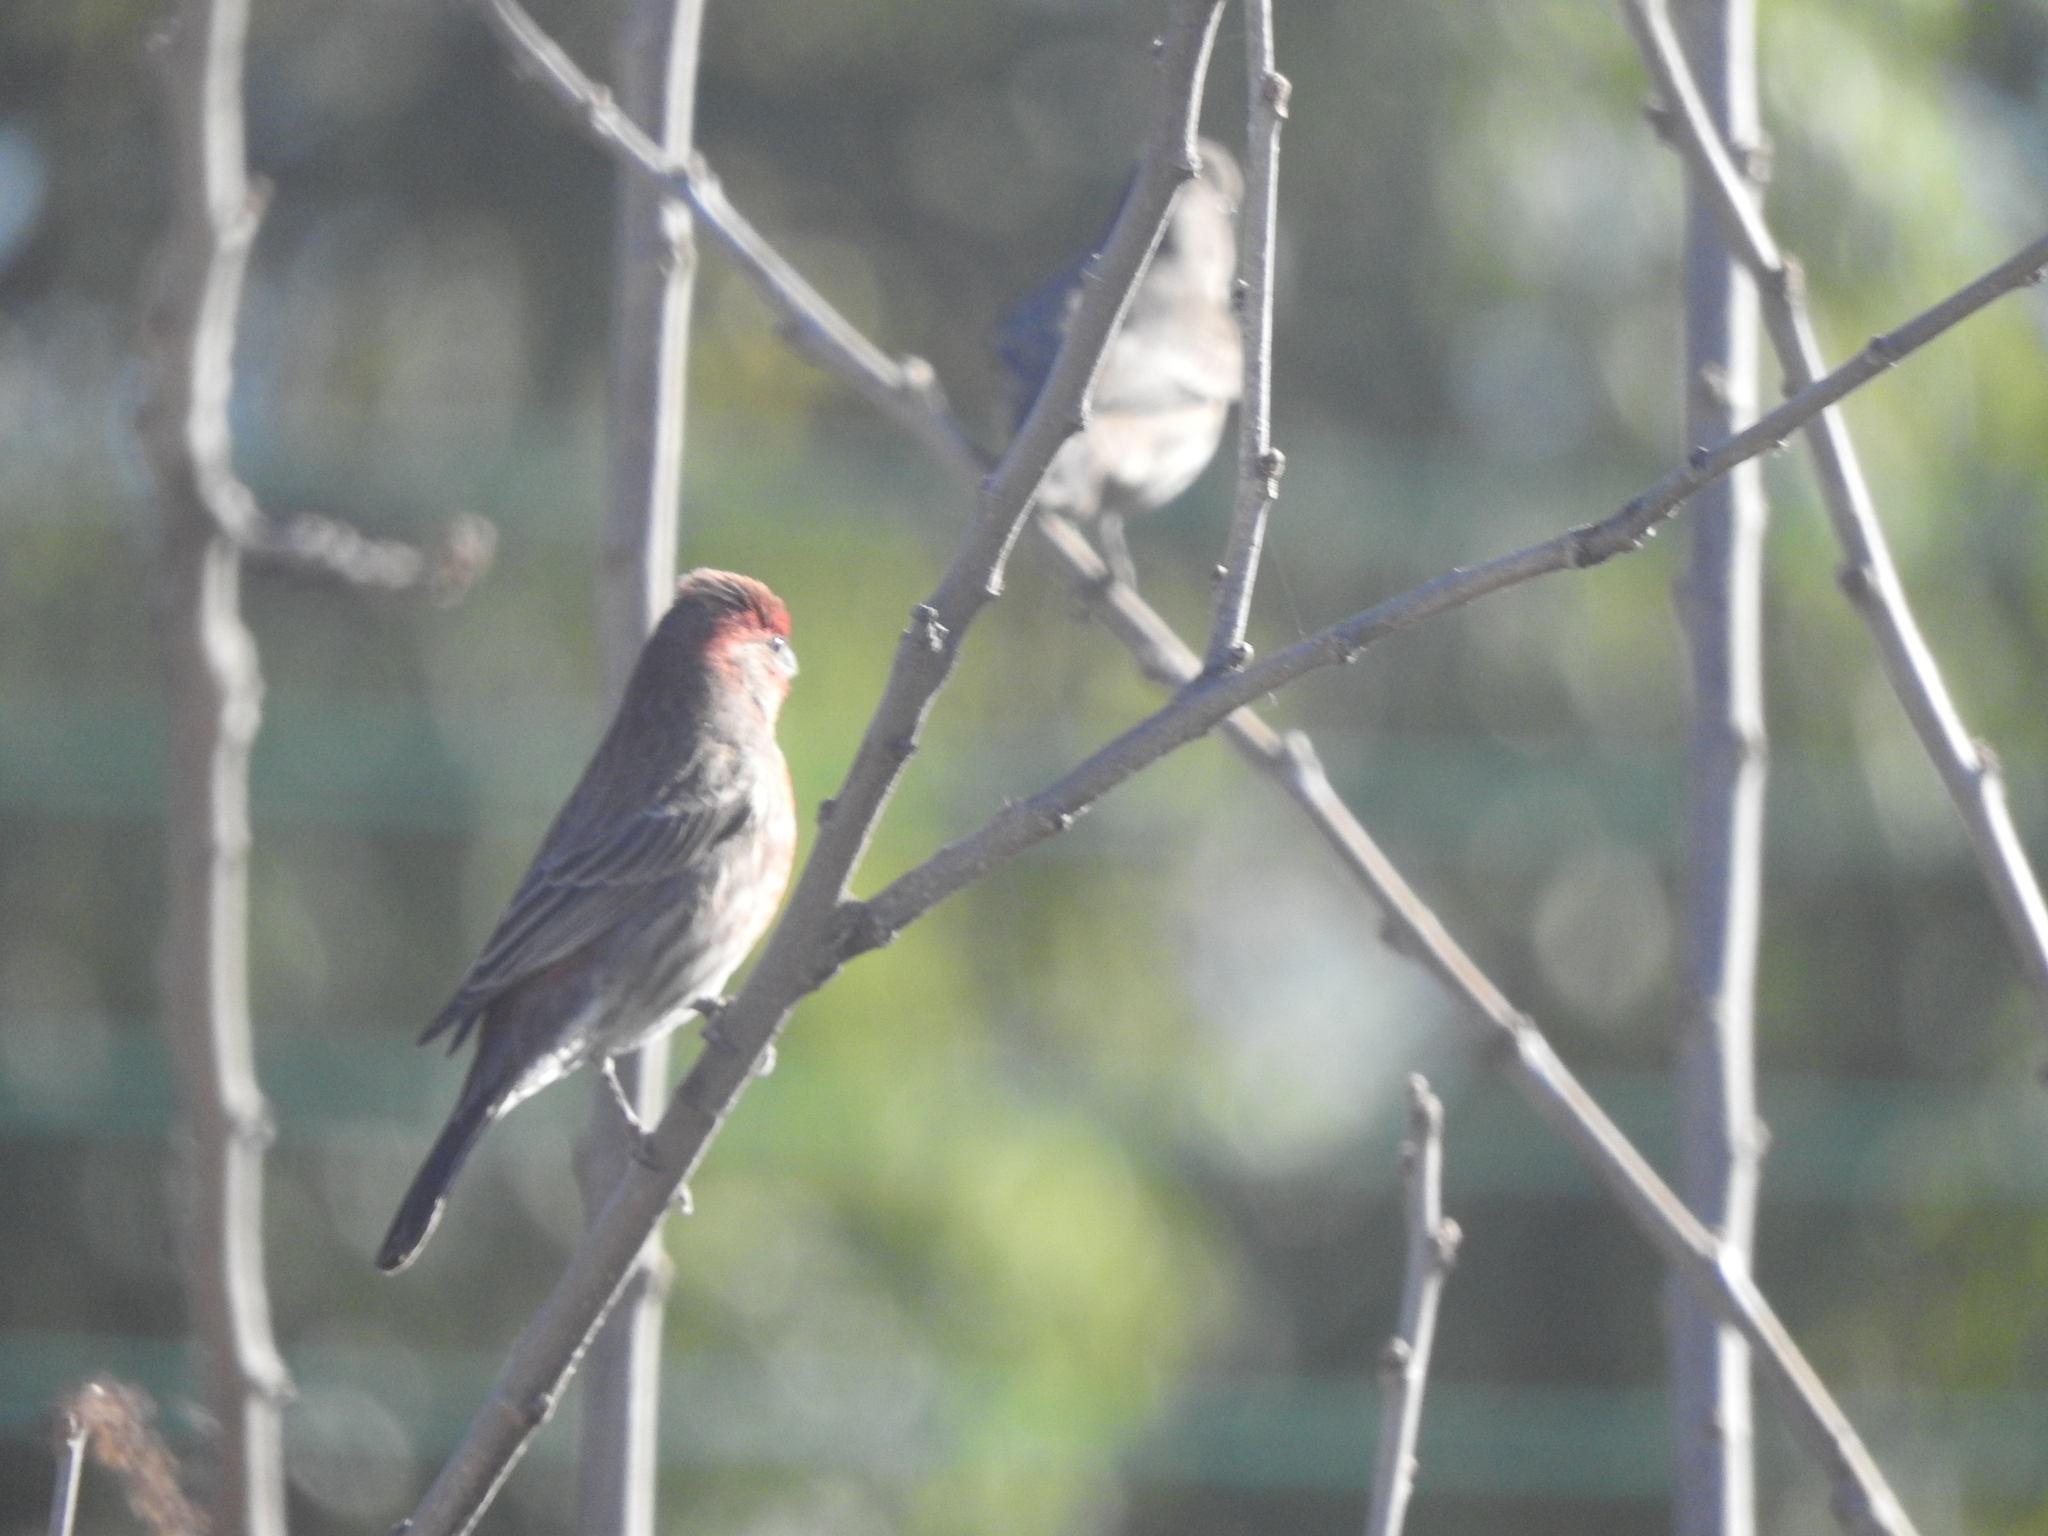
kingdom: Animalia
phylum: Chordata
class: Aves
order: Passeriformes
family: Fringillidae
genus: Haemorhous
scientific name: Haemorhous mexicanus
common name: House finch
